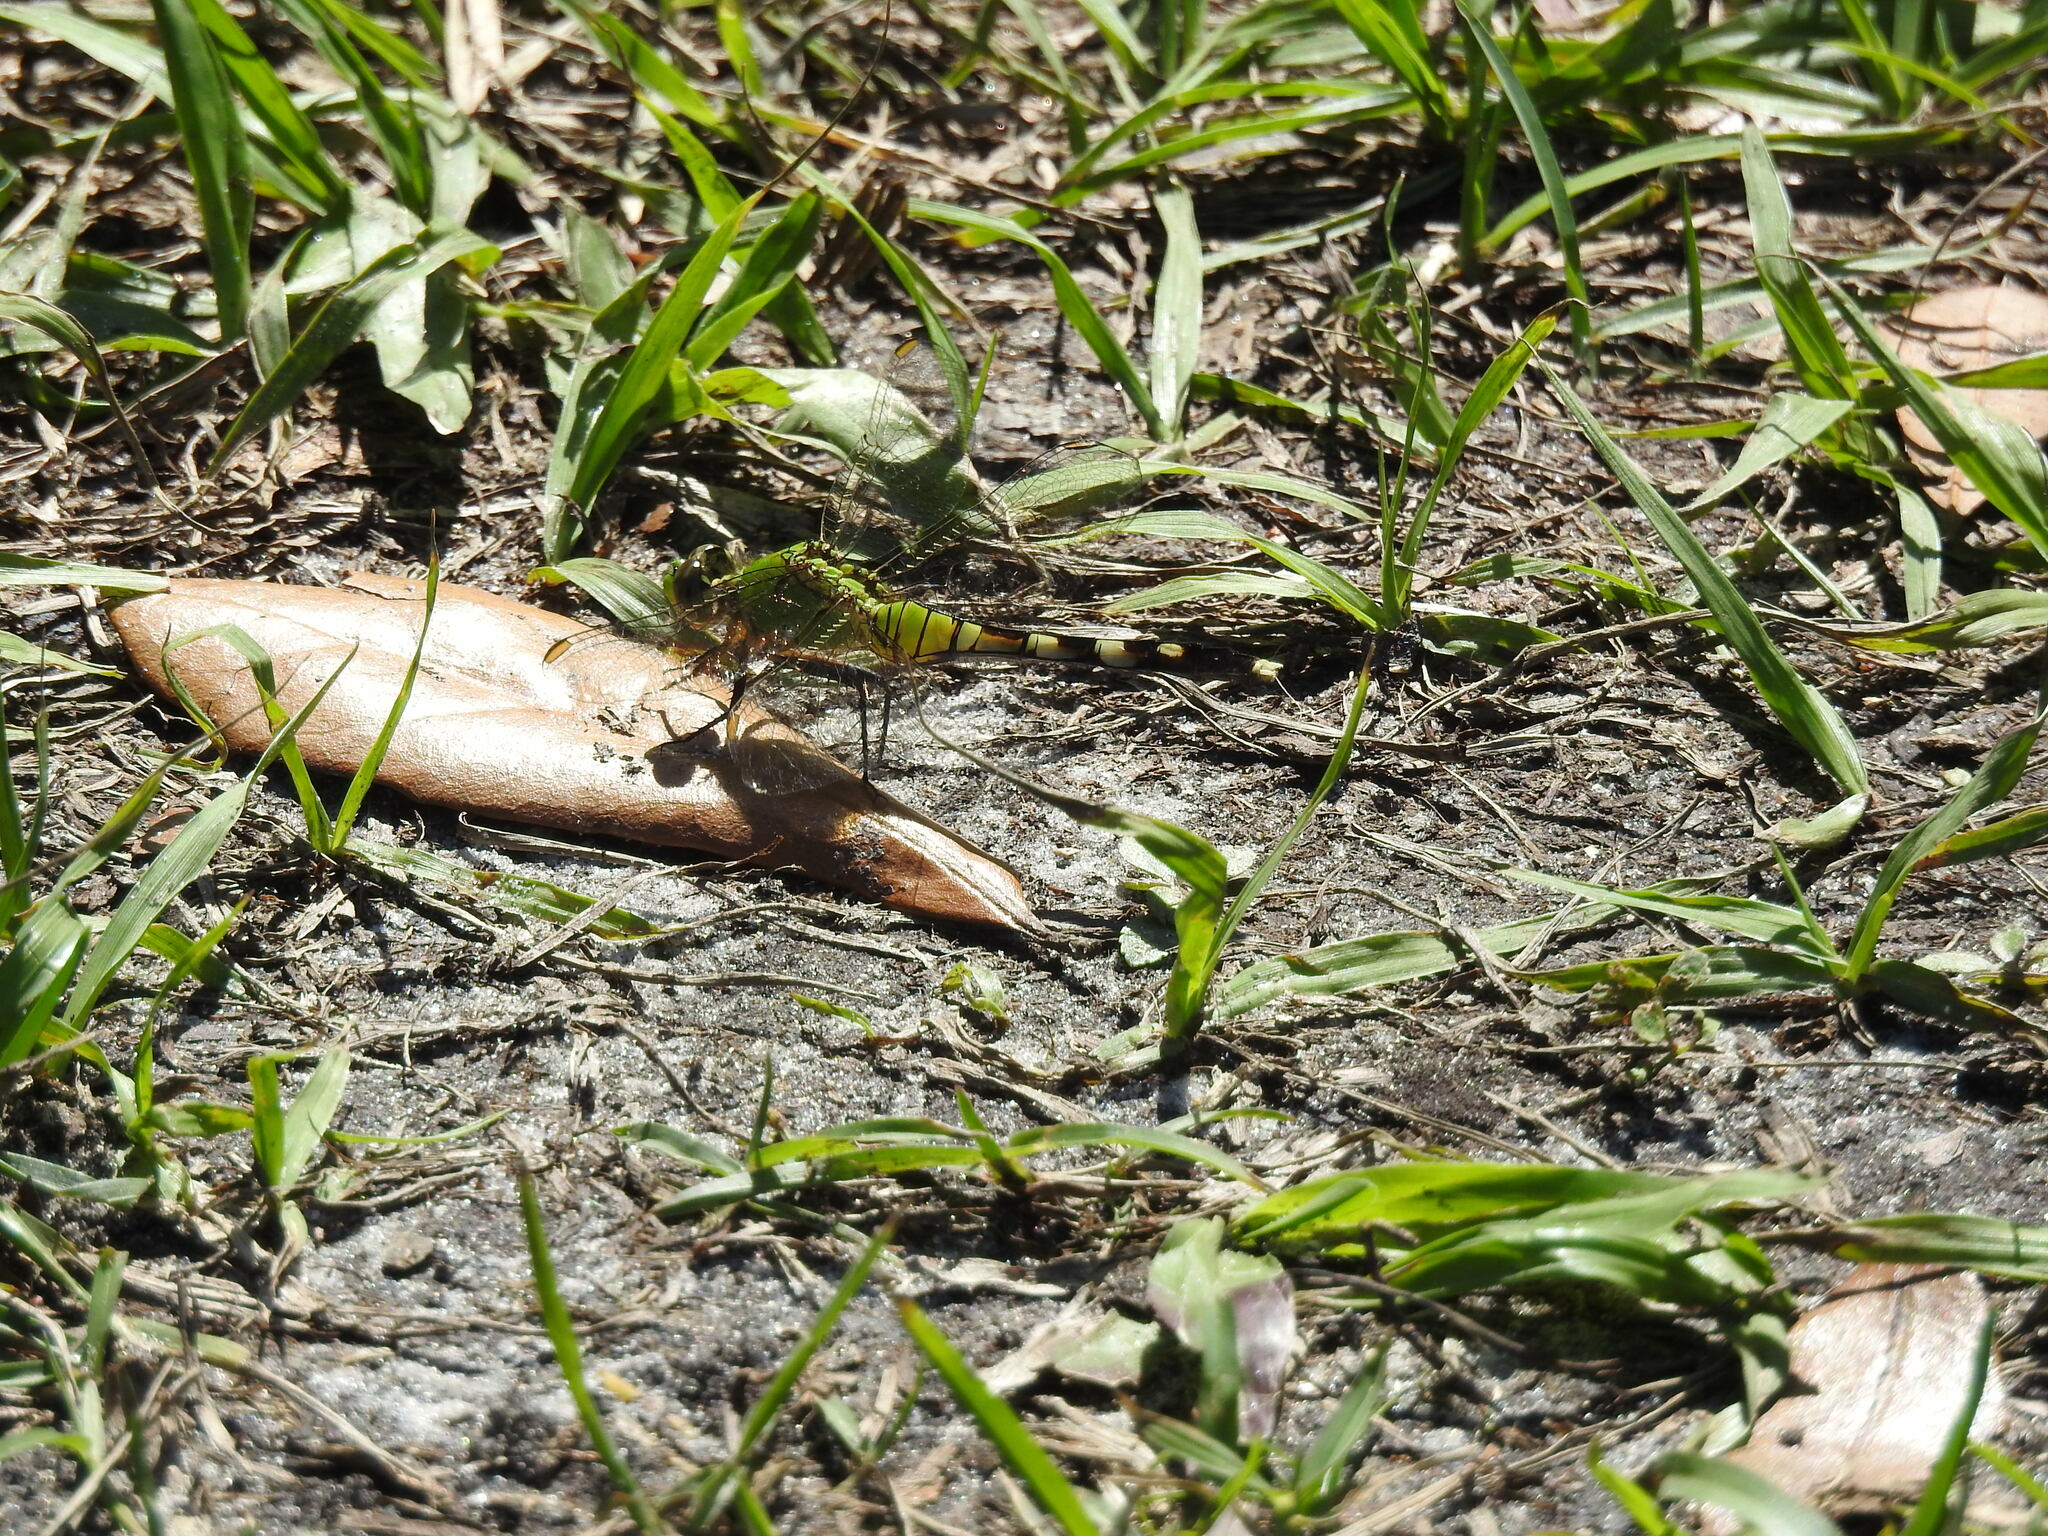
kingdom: Animalia
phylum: Arthropoda
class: Insecta
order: Odonata
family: Libellulidae
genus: Erythemis
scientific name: Erythemis simplicicollis
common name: Eastern pondhawk
